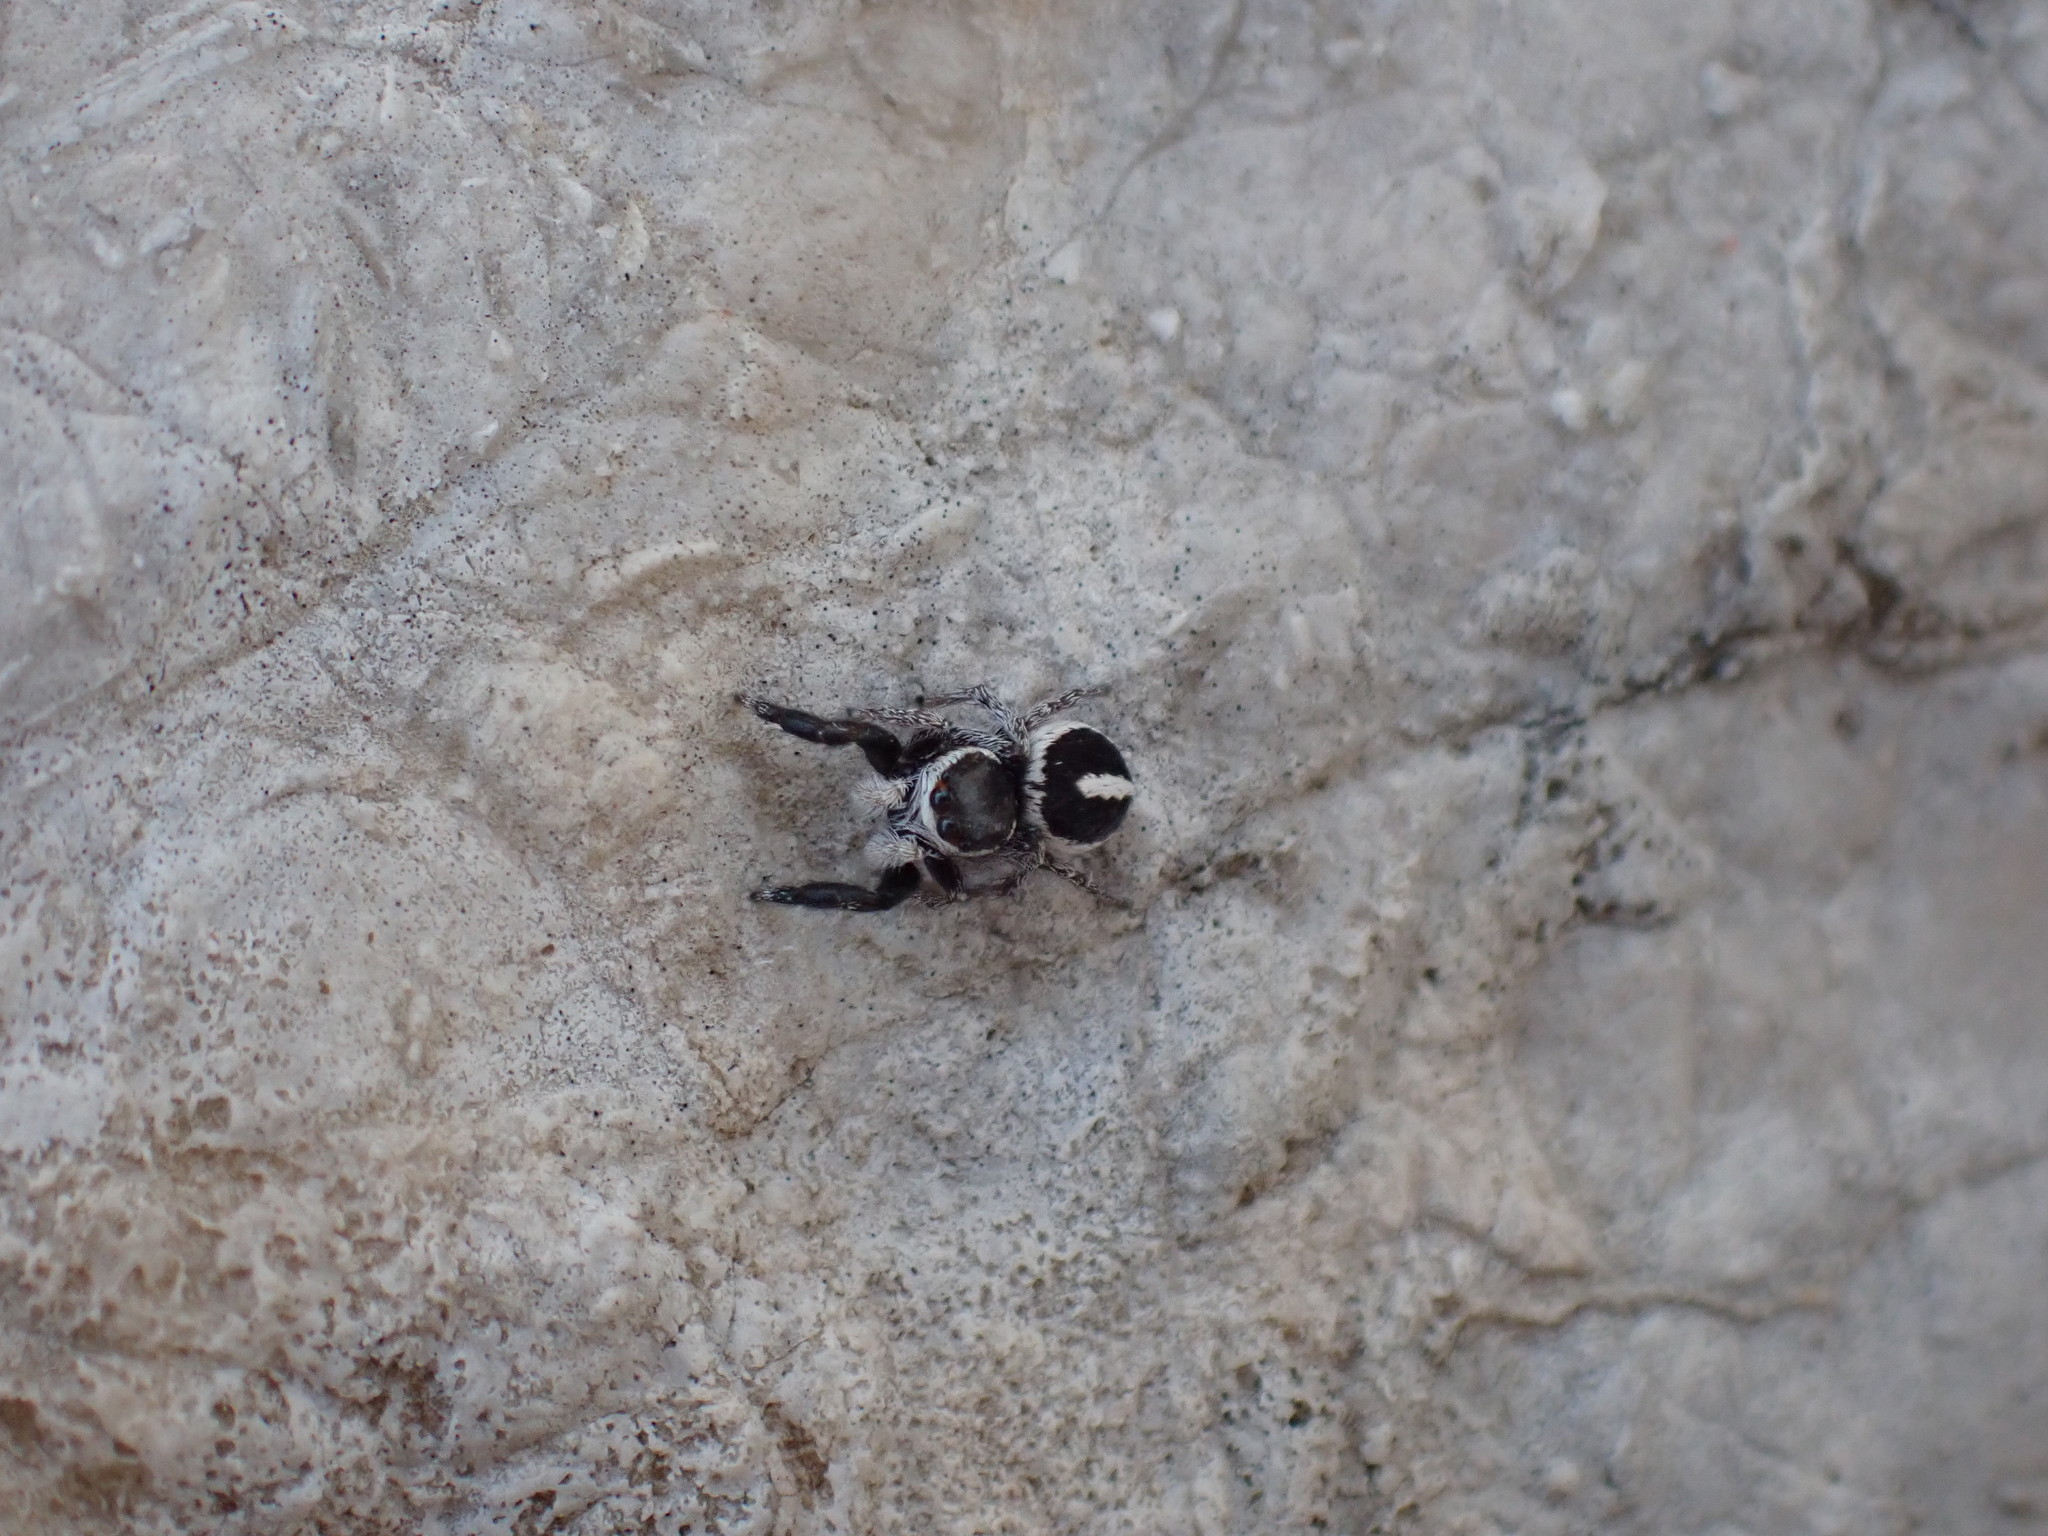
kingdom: Animalia
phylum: Arthropoda
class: Arachnida
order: Araneae
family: Salticidae
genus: Pellenes
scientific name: Pellenes geniculatus
